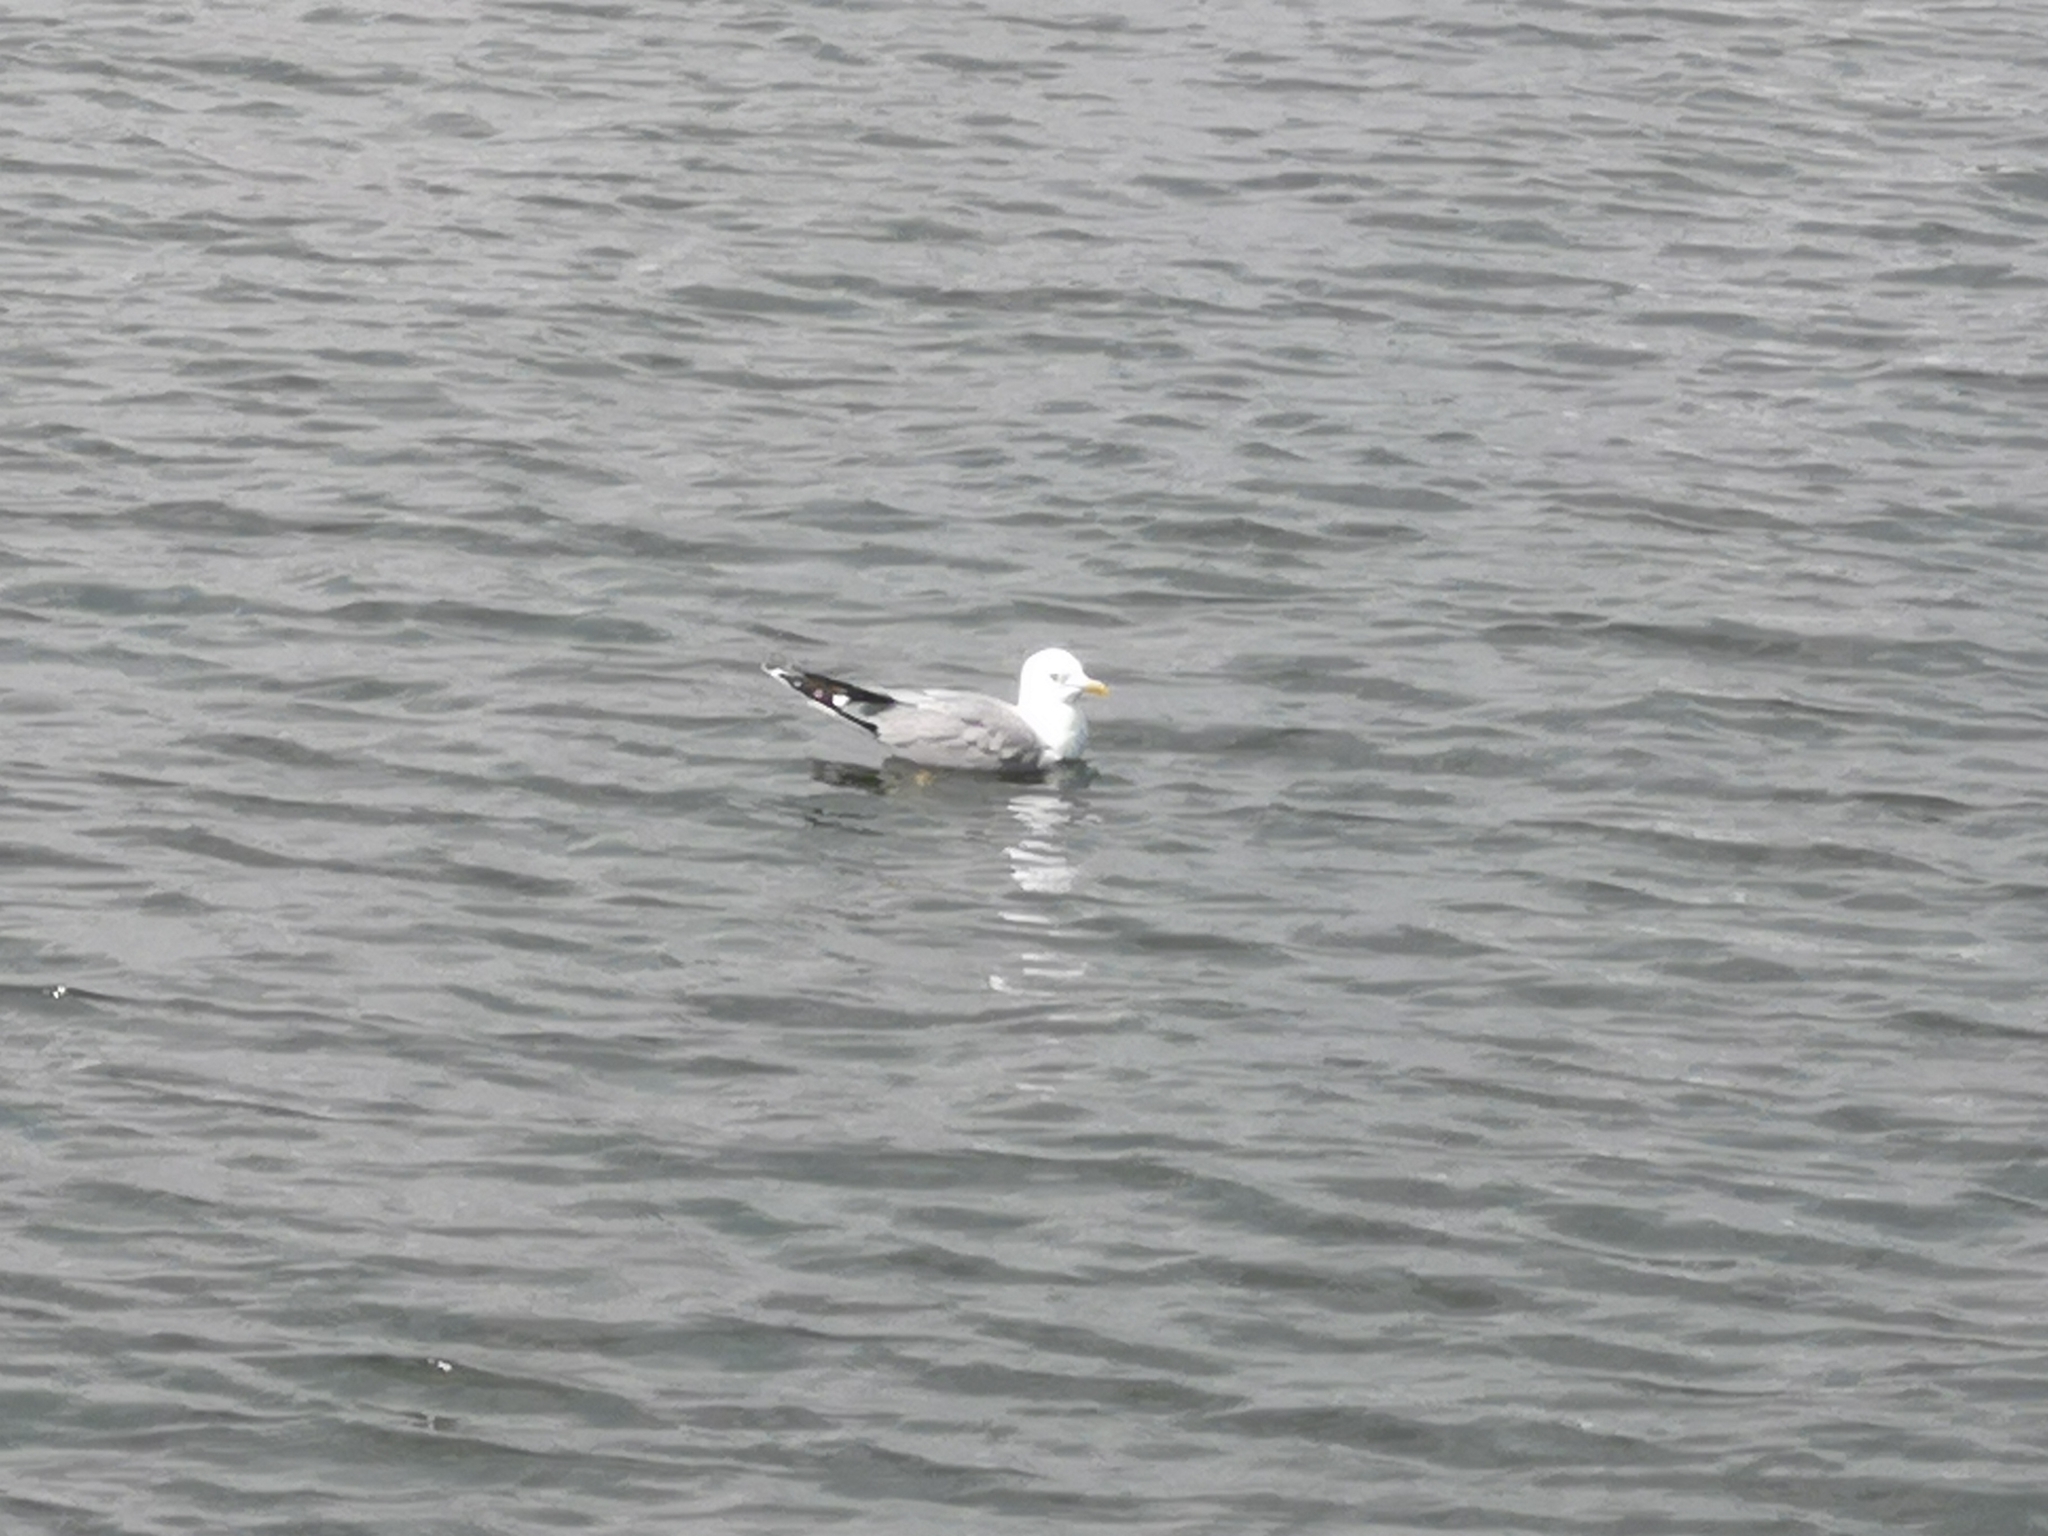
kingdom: Animalia
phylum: Chordata
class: Aves
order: Charadriiformes
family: Laridae
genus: Larus
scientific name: Larus canus
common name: Mew gull
